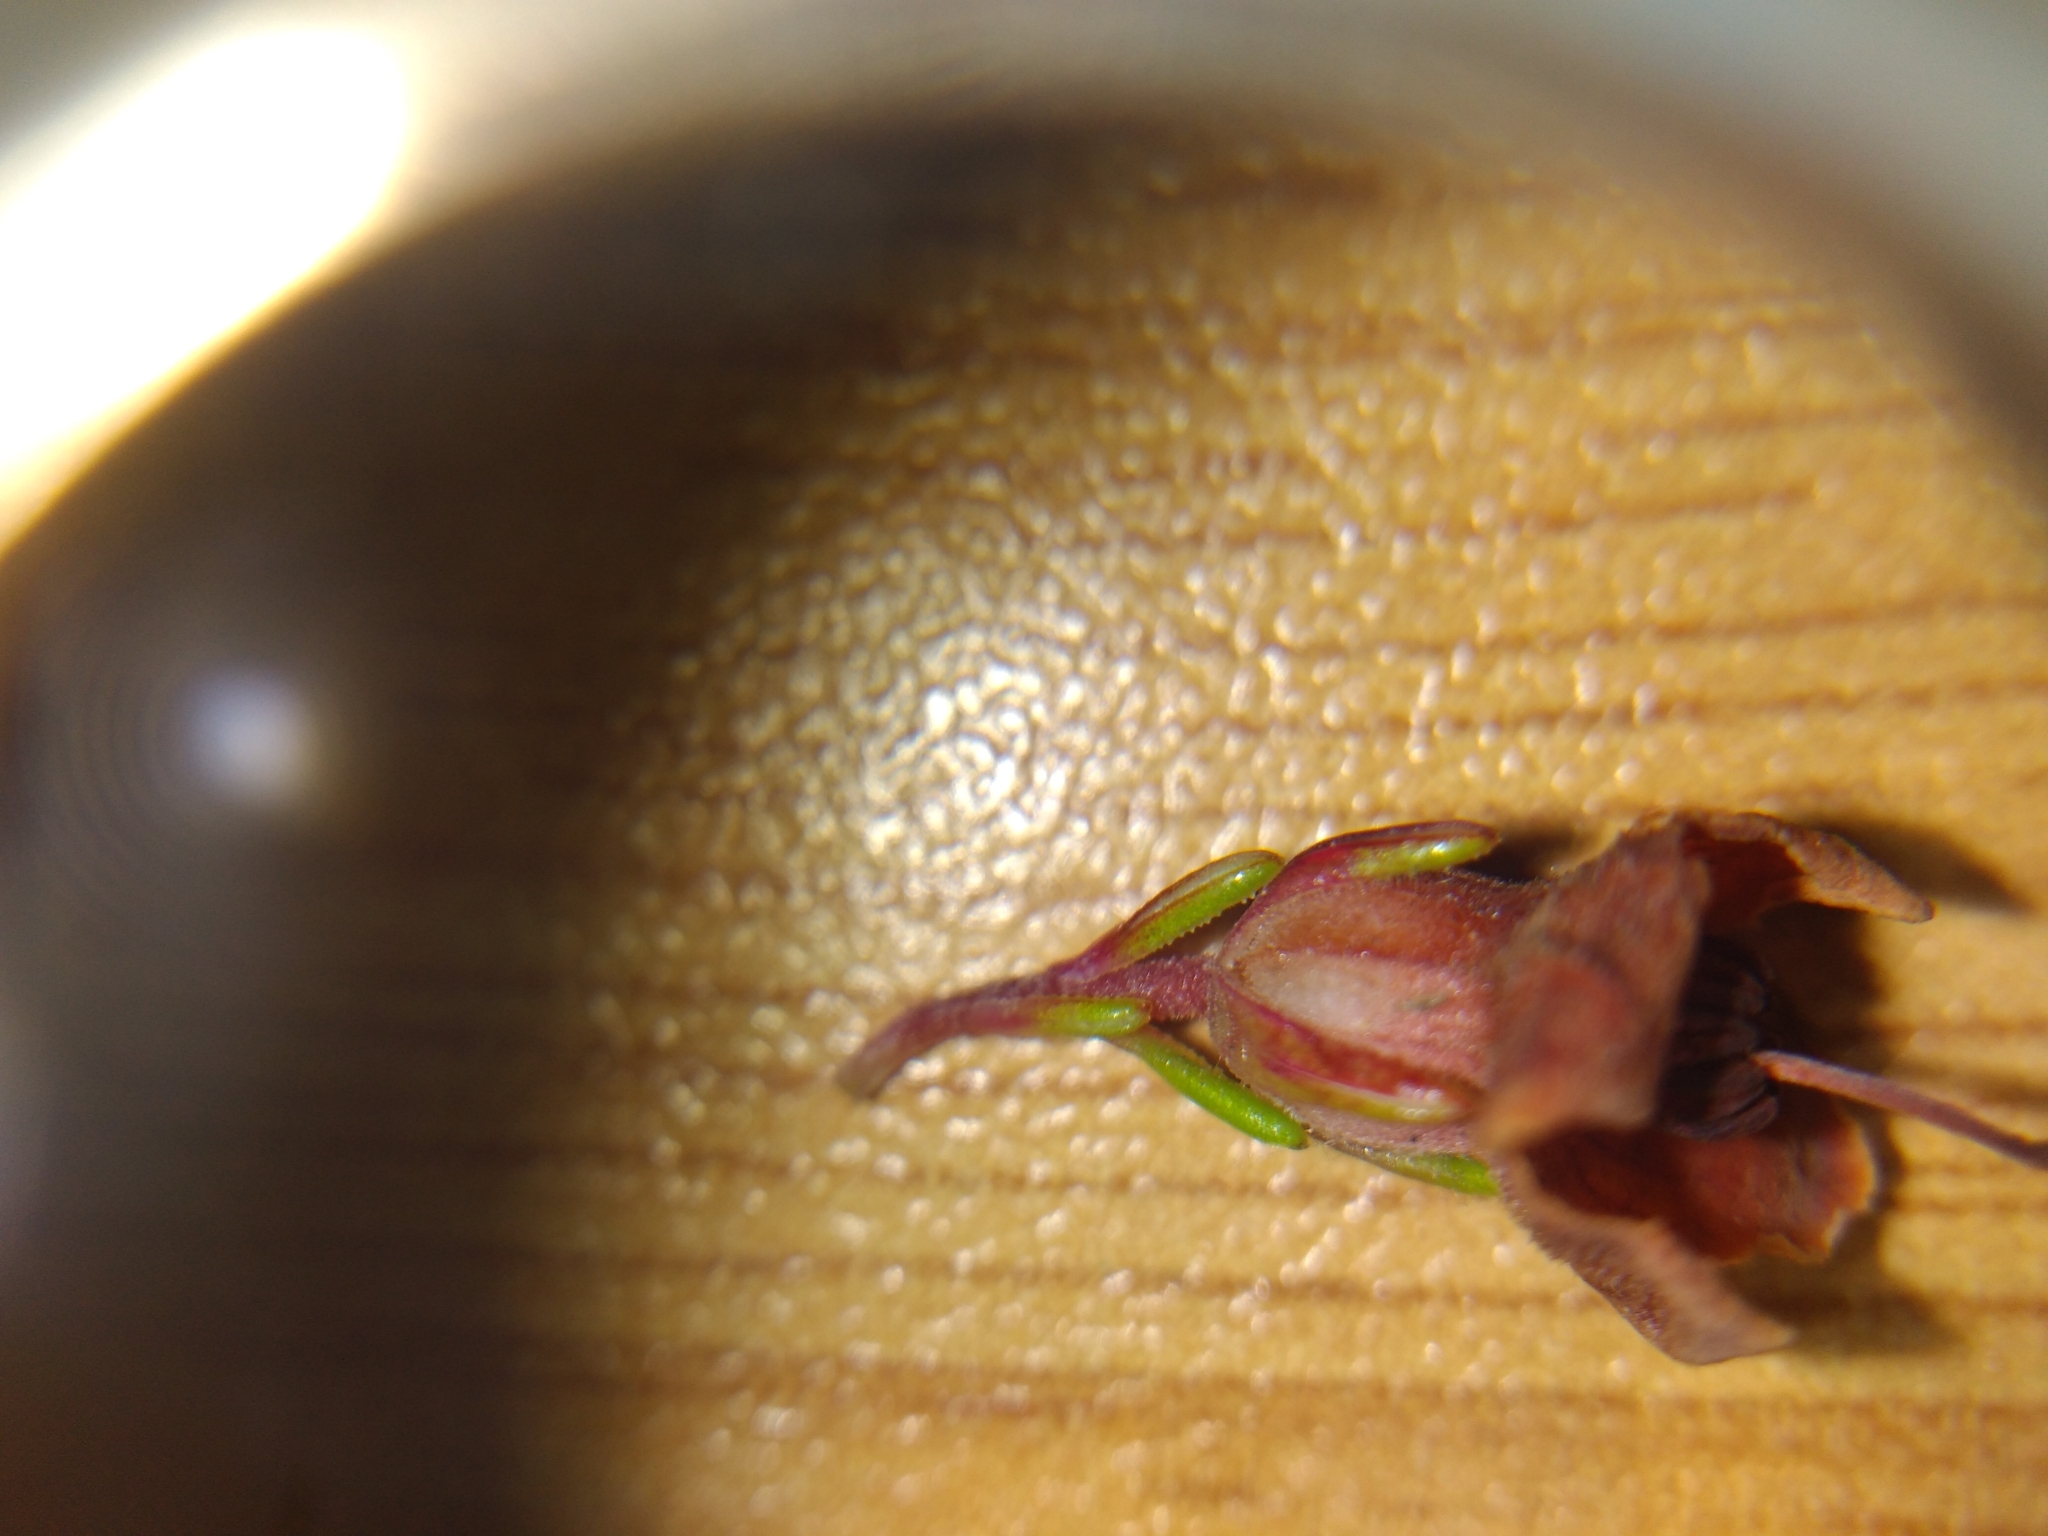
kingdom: Plantae
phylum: Tracheophyta
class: Magnoliopsida
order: Ericales
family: Ericaceae
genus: Erica
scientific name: Erica latiflora
